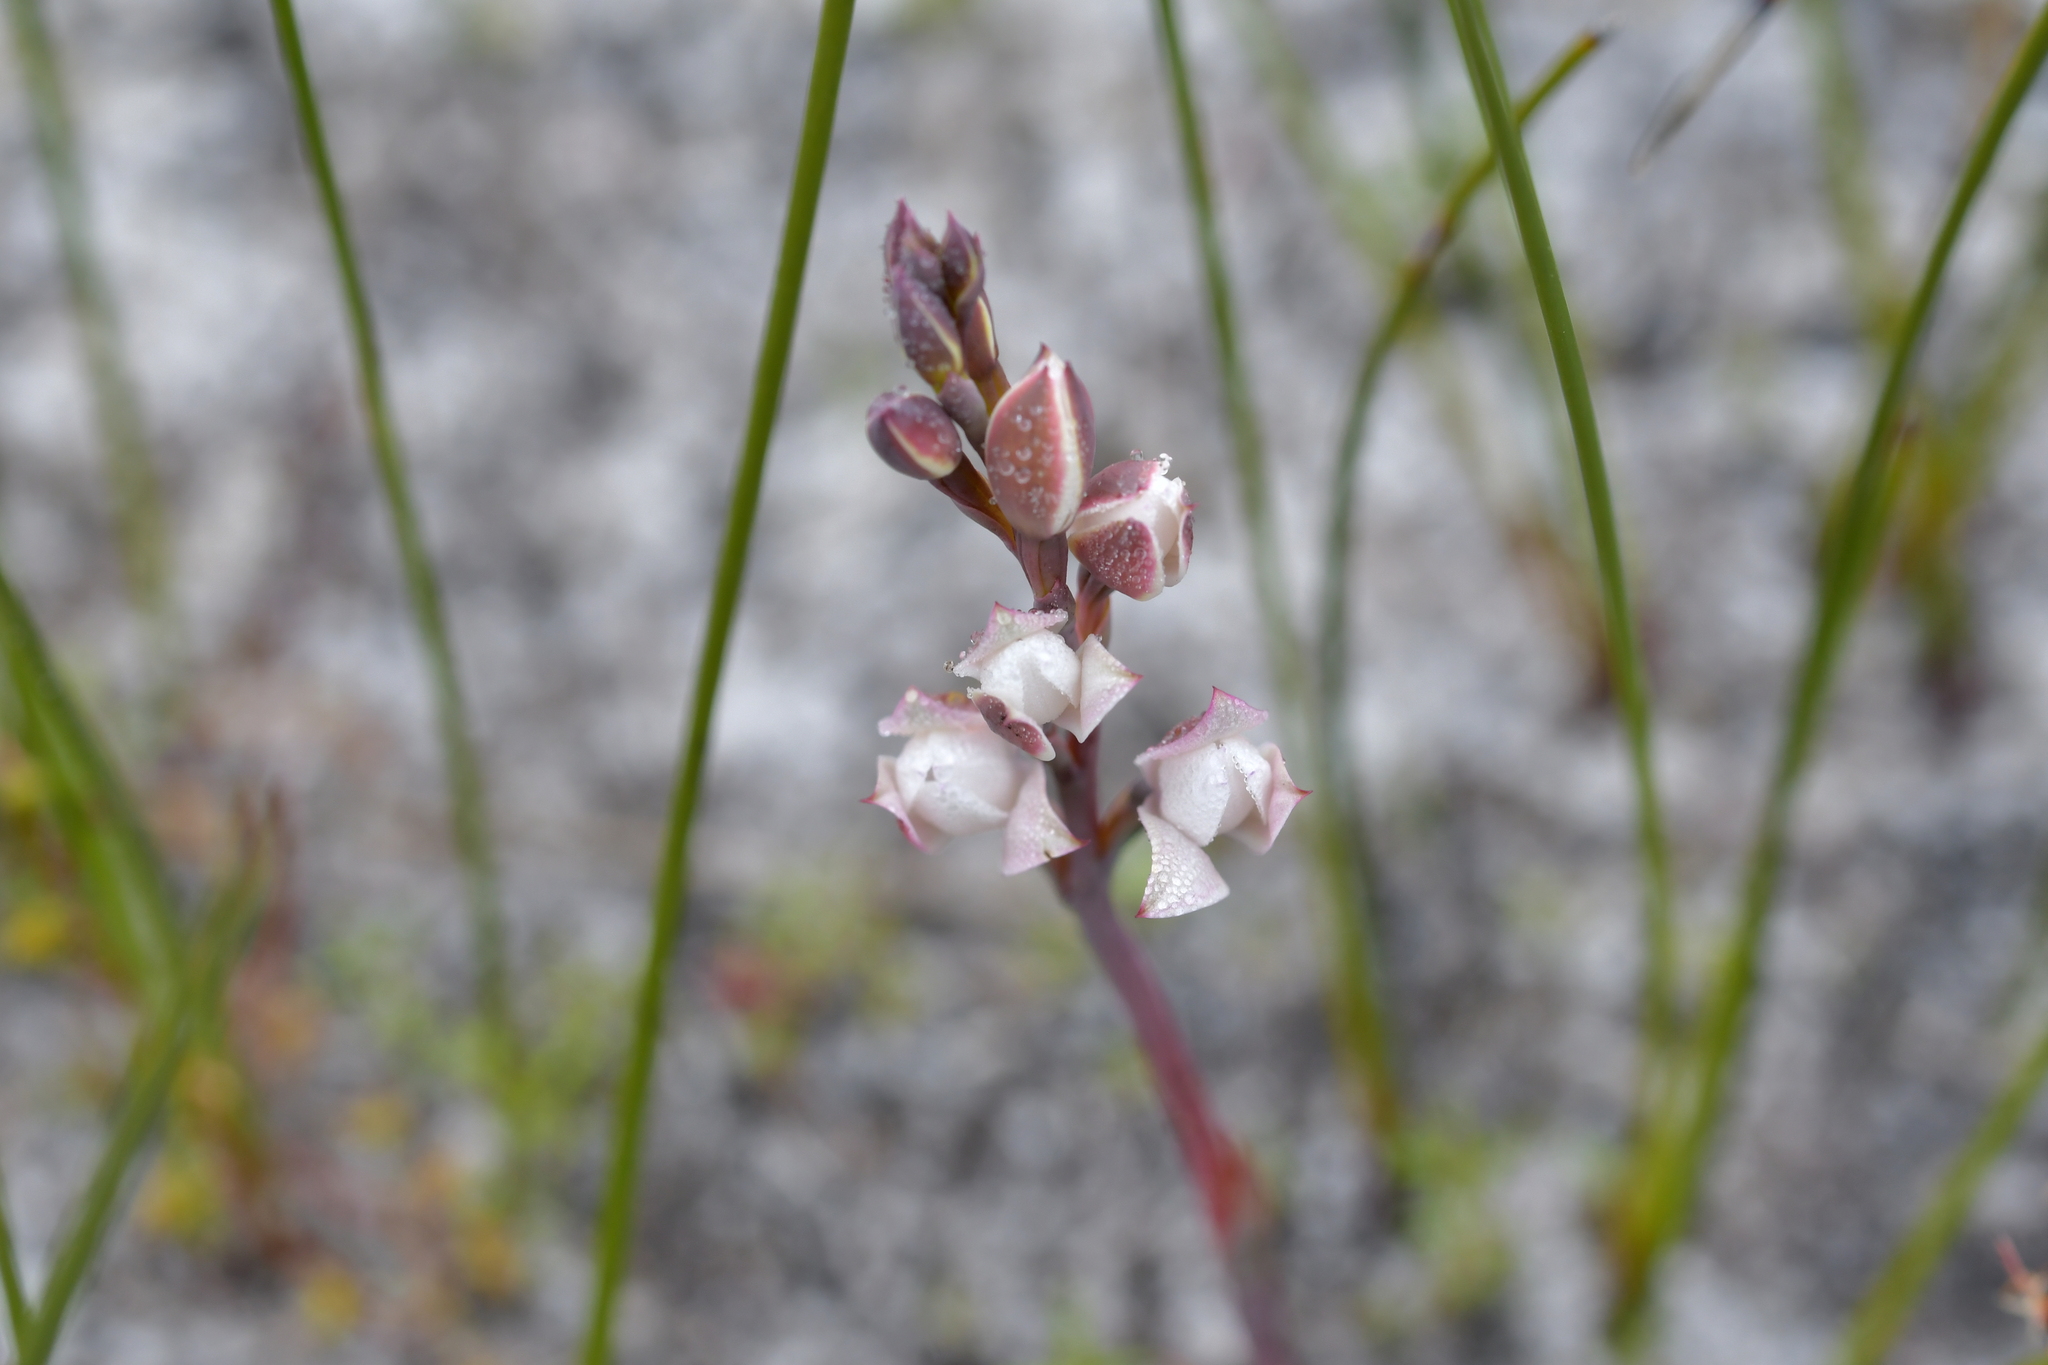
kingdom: Plantae
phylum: Tracheophyta
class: Liliopsida
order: Asparagales
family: Orchidaceae
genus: Thelymitra
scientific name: Thelymitra longifolia
